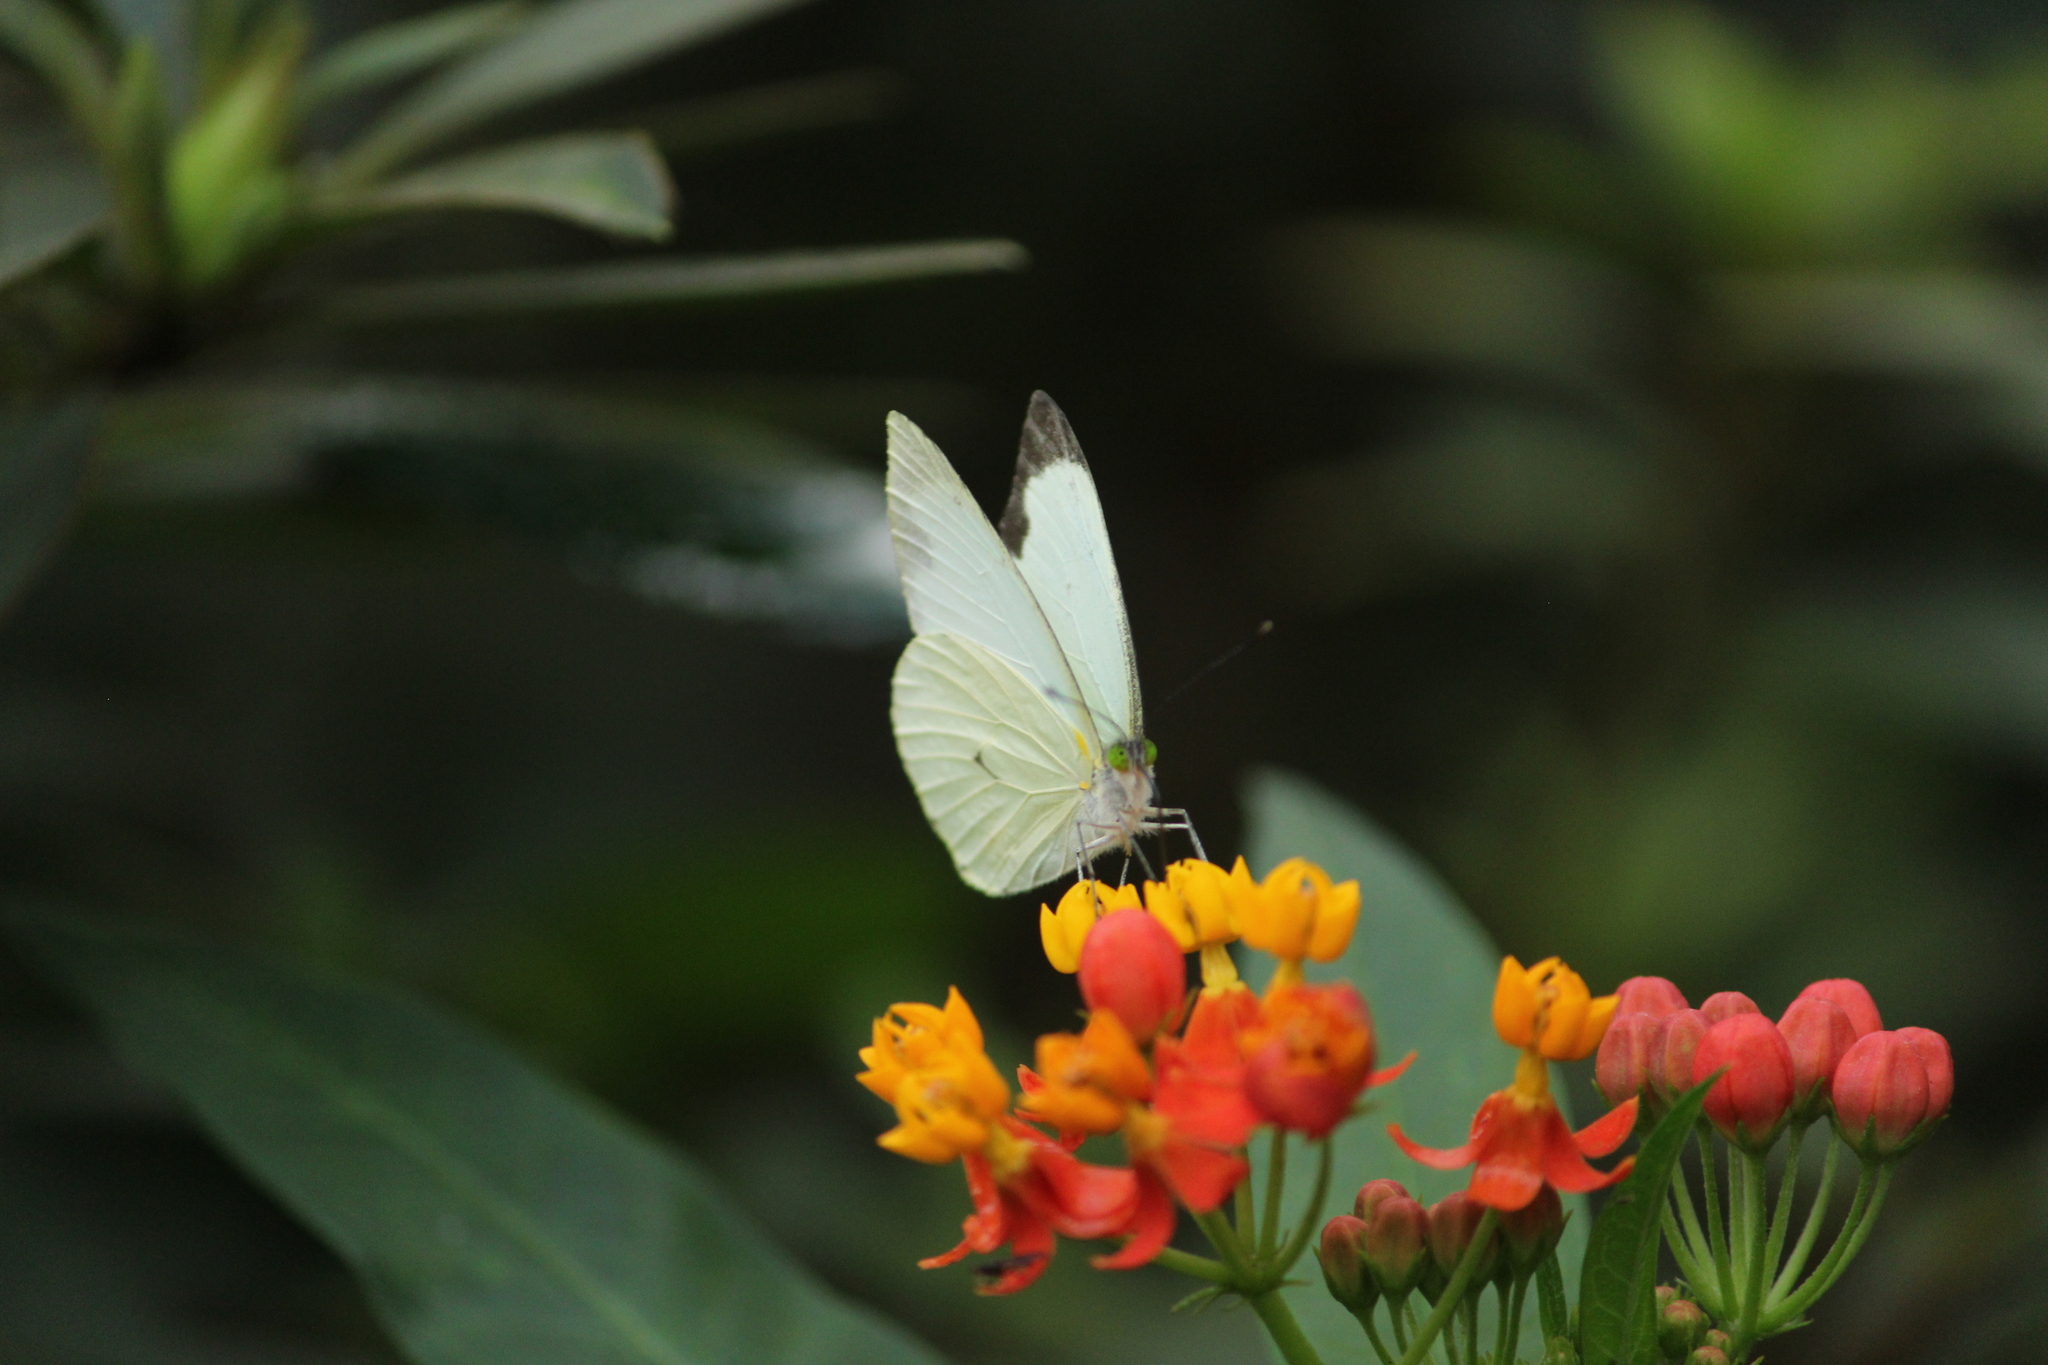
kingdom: Animalia
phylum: Arthropoda
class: Insecta
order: Lepidoptera
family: Pieridae
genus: Leptophobia
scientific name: Leptophobia aripa
